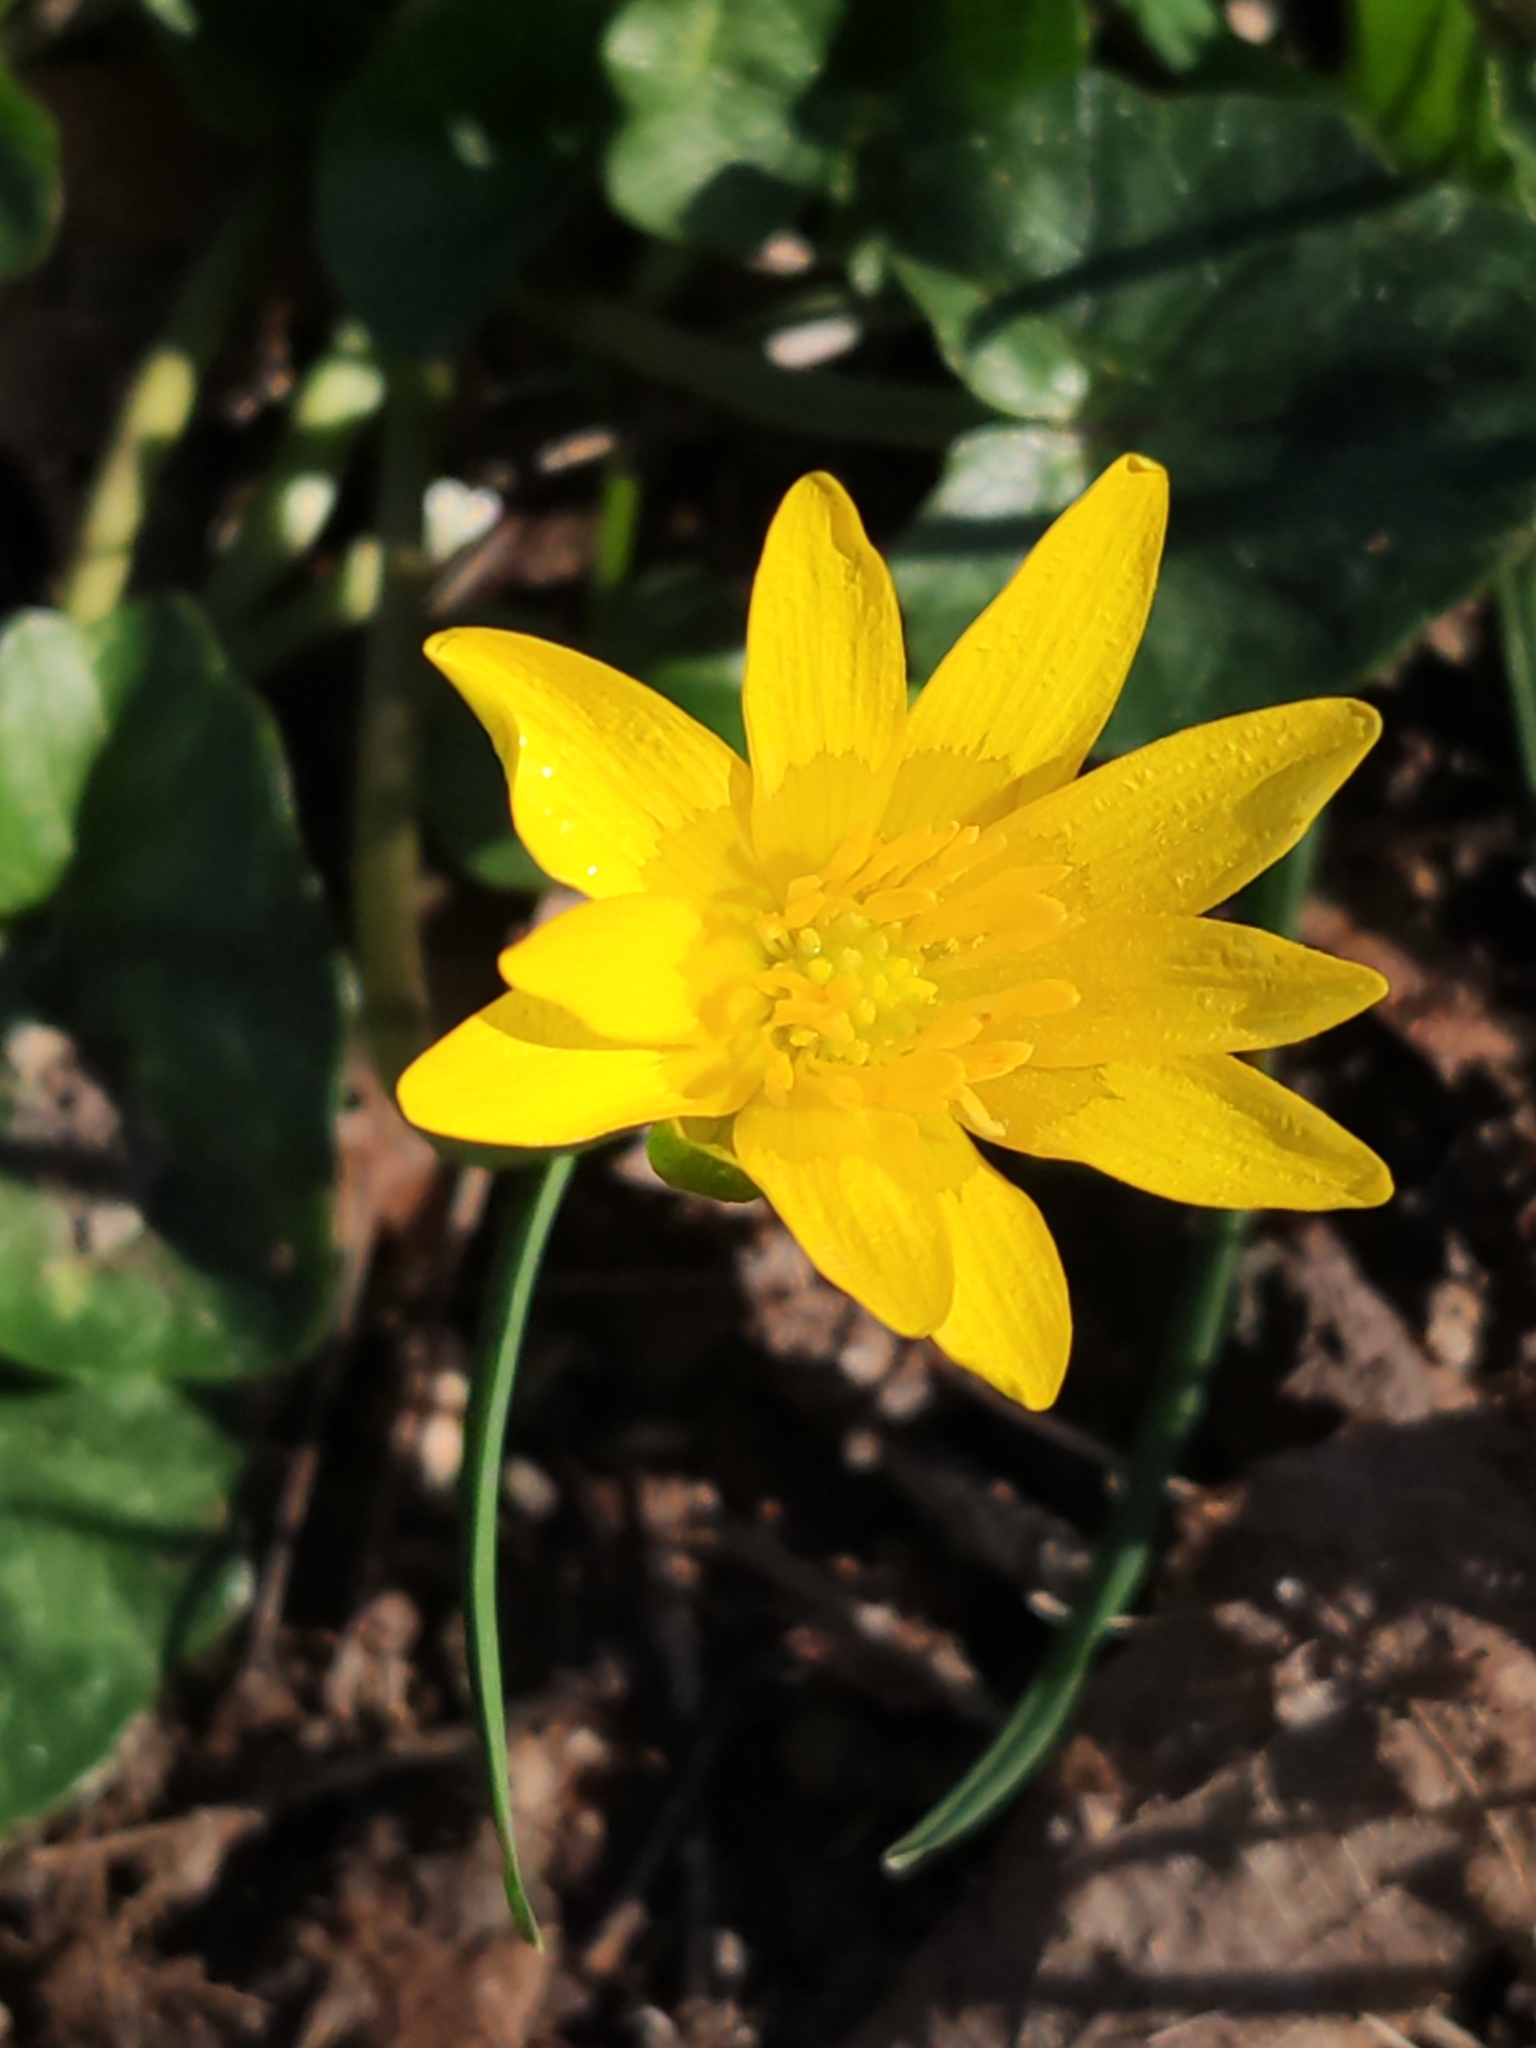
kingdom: Plantae
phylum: Tracheophyta
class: Magnoliopsida
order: Ranunculales
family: Ranunculaceae
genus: Ficaria
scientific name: Ficaria verna
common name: Lesser celandine
